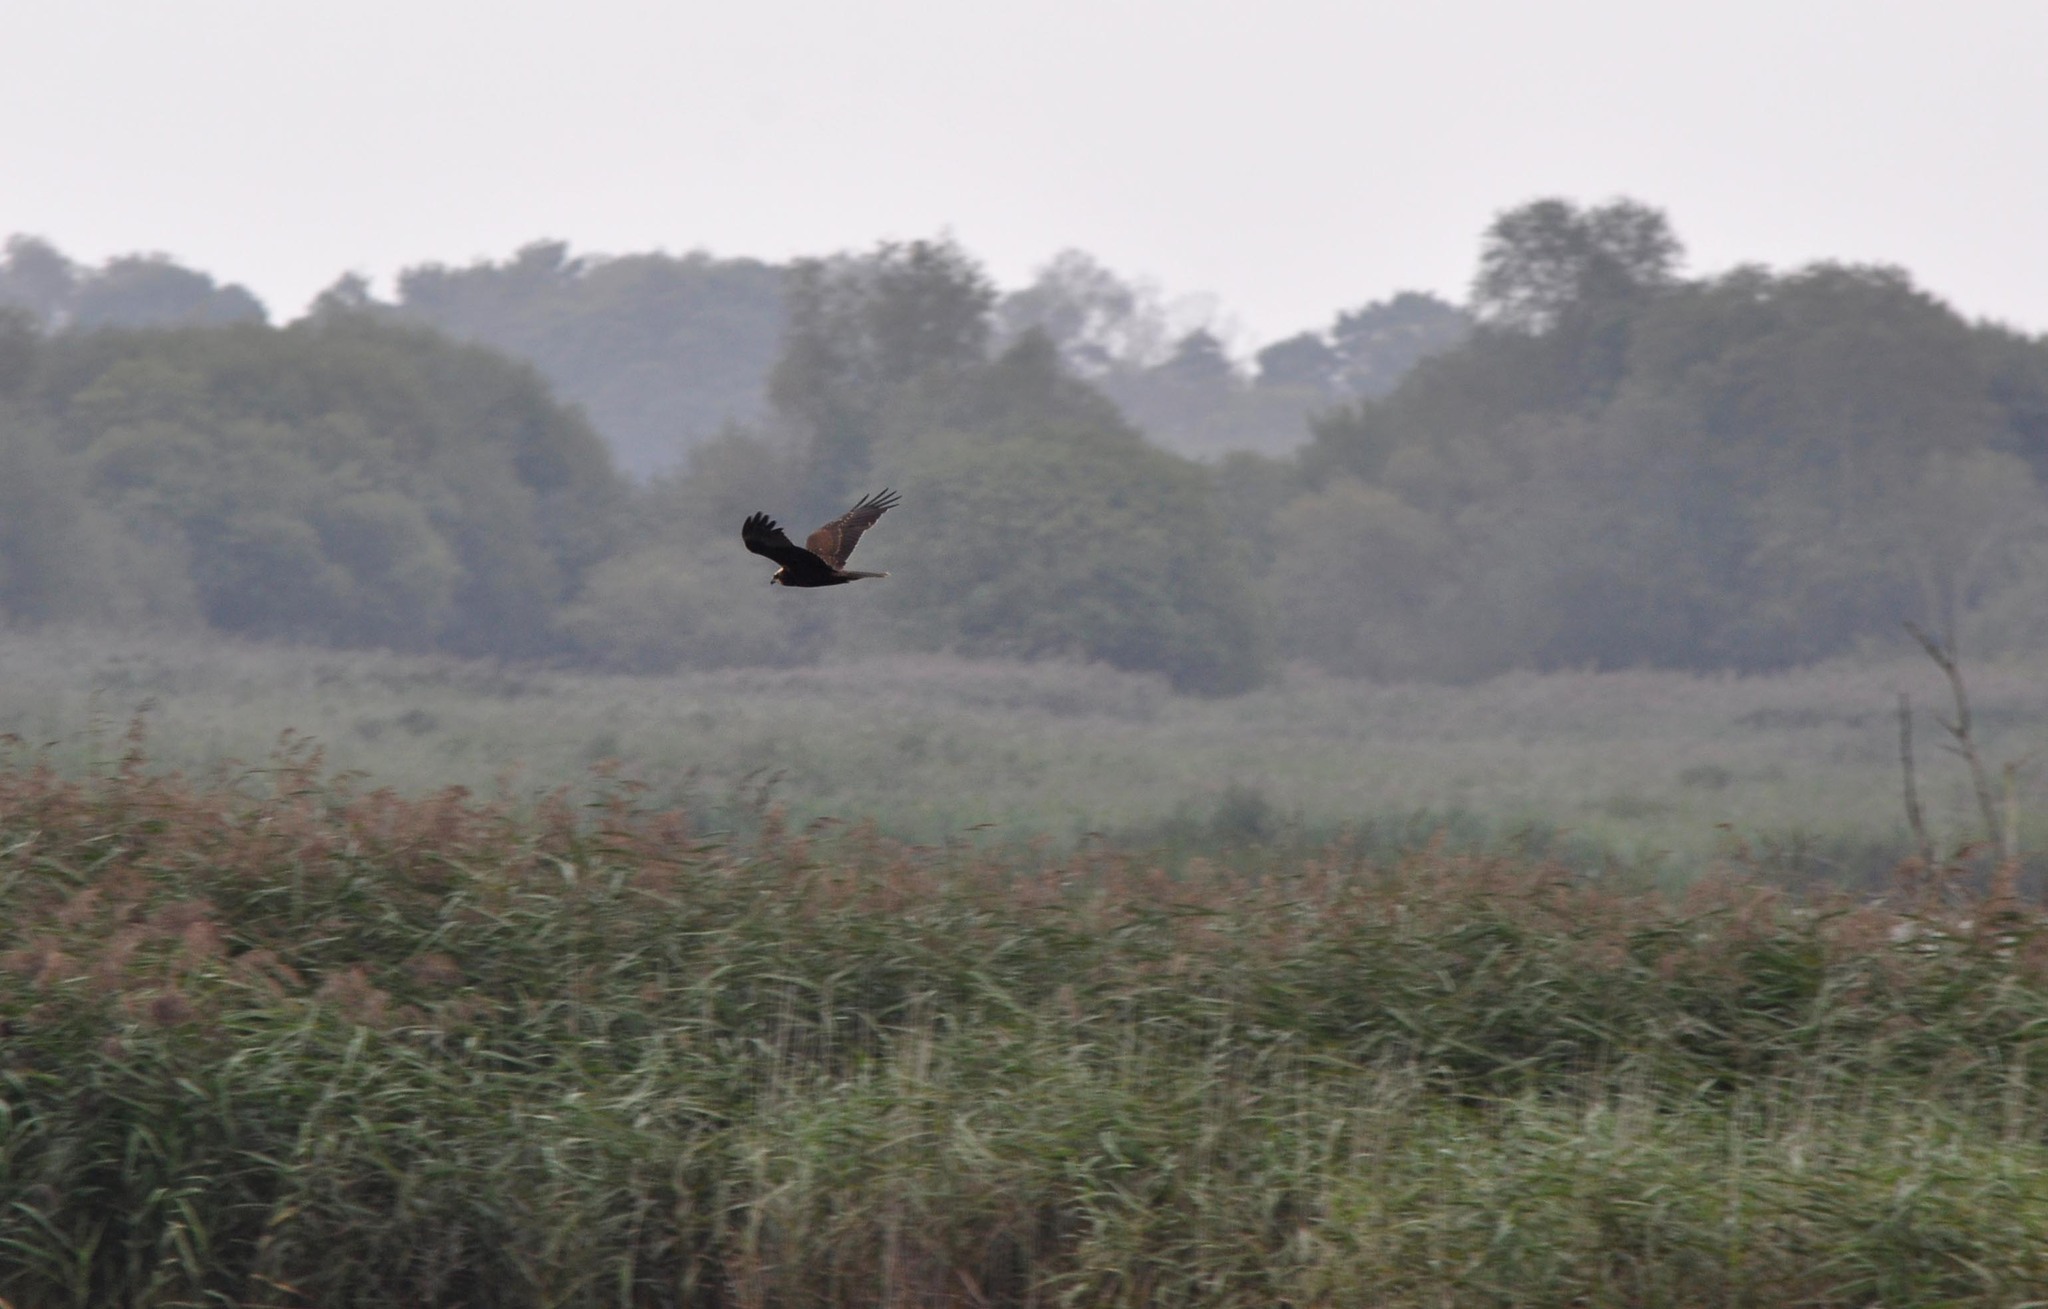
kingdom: Animalia
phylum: Chordata
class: Aves
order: Accipitriformes
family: Accipitridae
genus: Circus
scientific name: Circus aeruginosus
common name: Western marsh harrier
